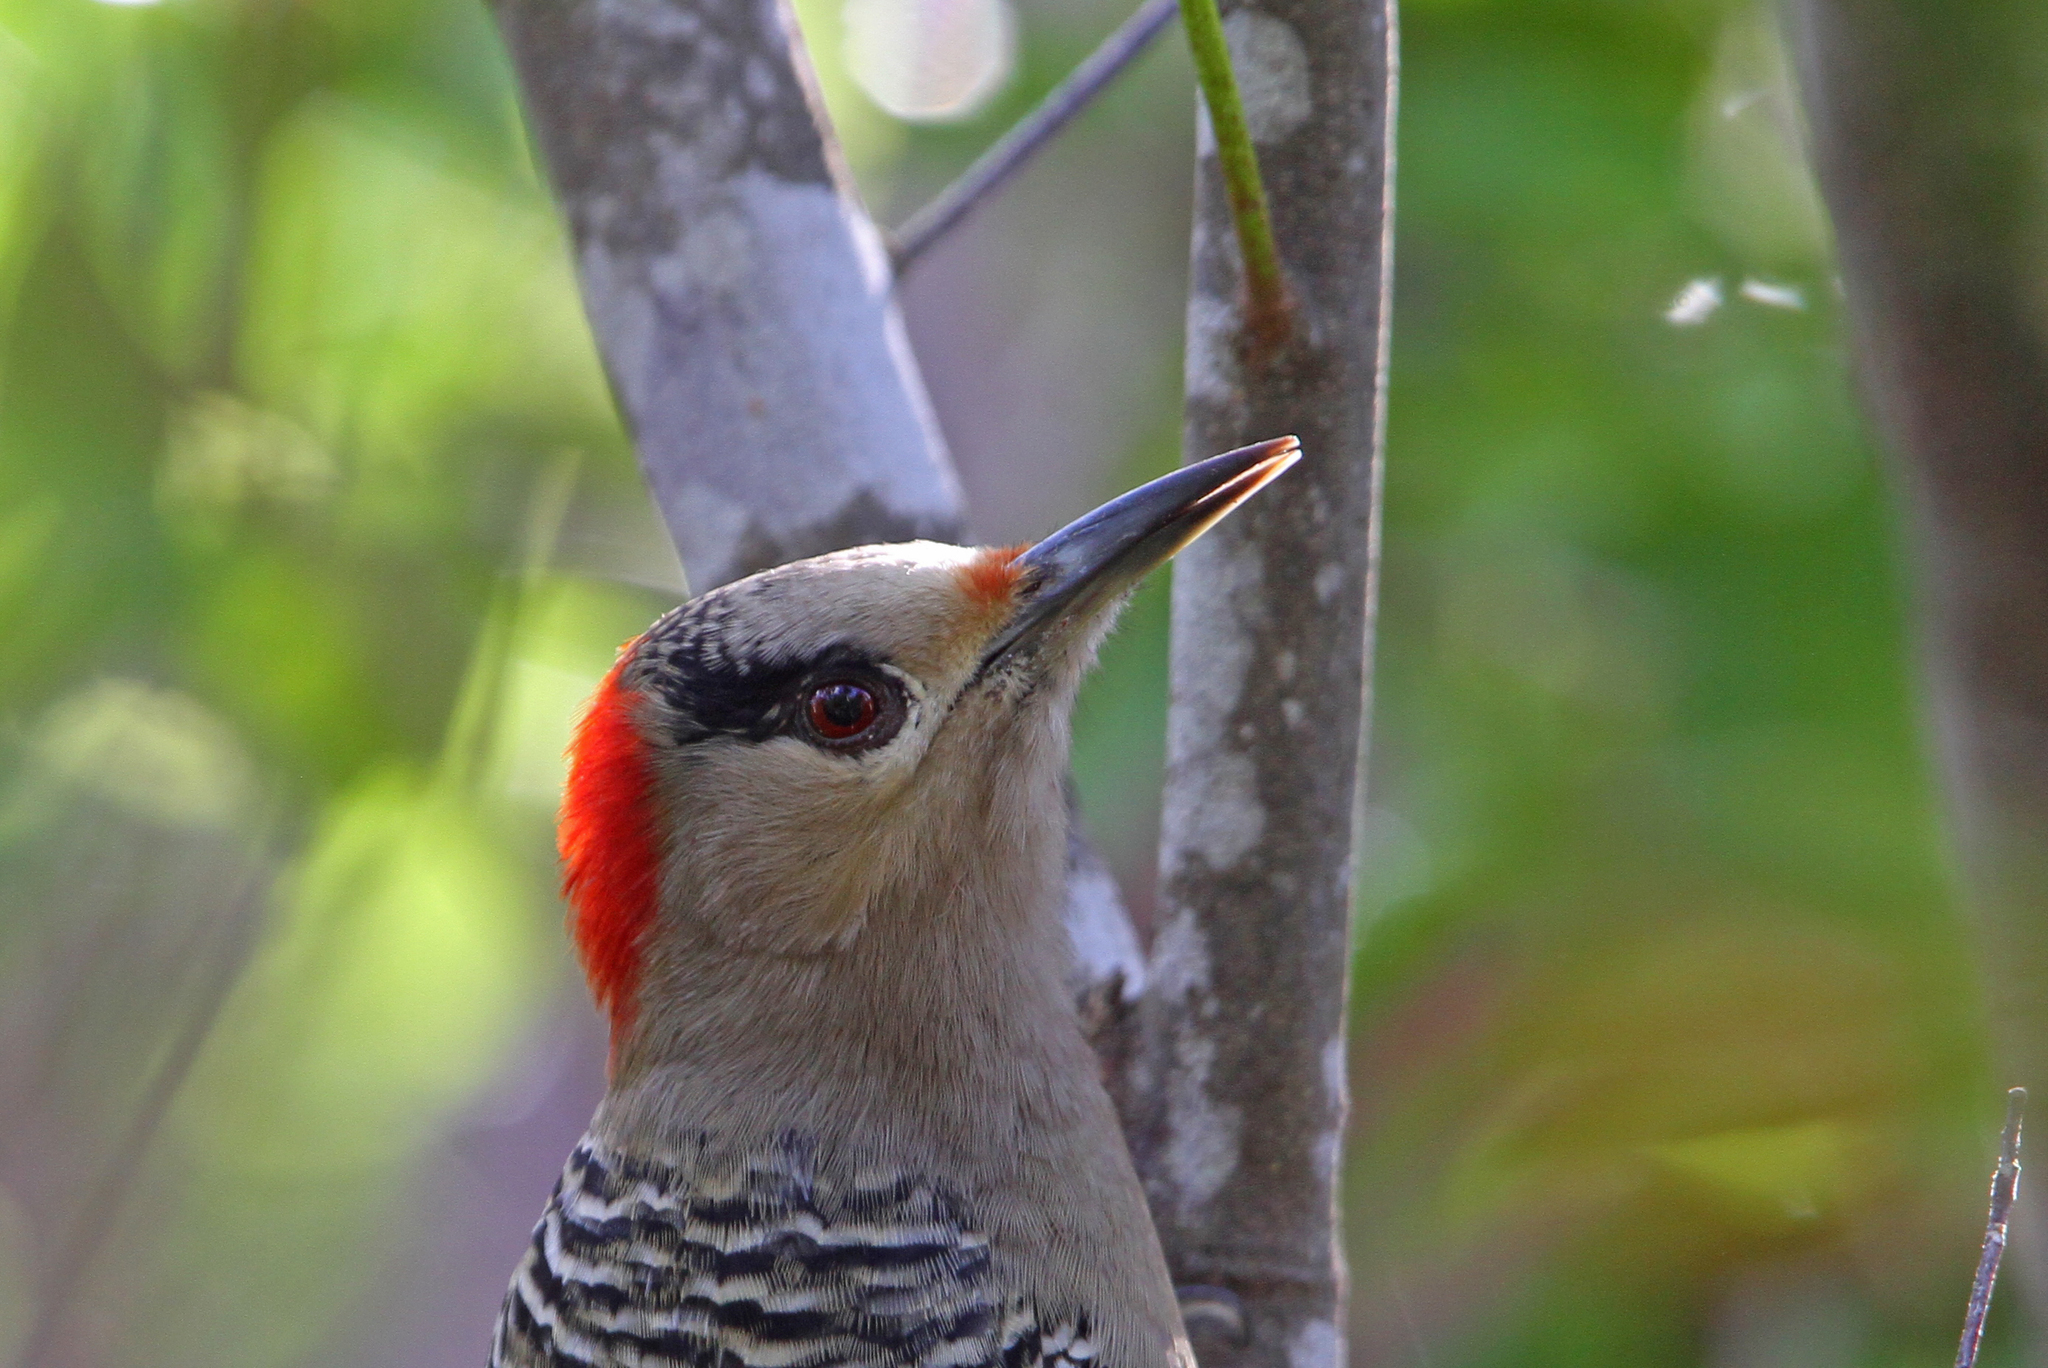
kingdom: Animalia
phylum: Chordata
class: Aves
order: Piciformes
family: Picidae
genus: Melanerpes
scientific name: Melanerpes superciliaris
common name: West indian woodpecker
